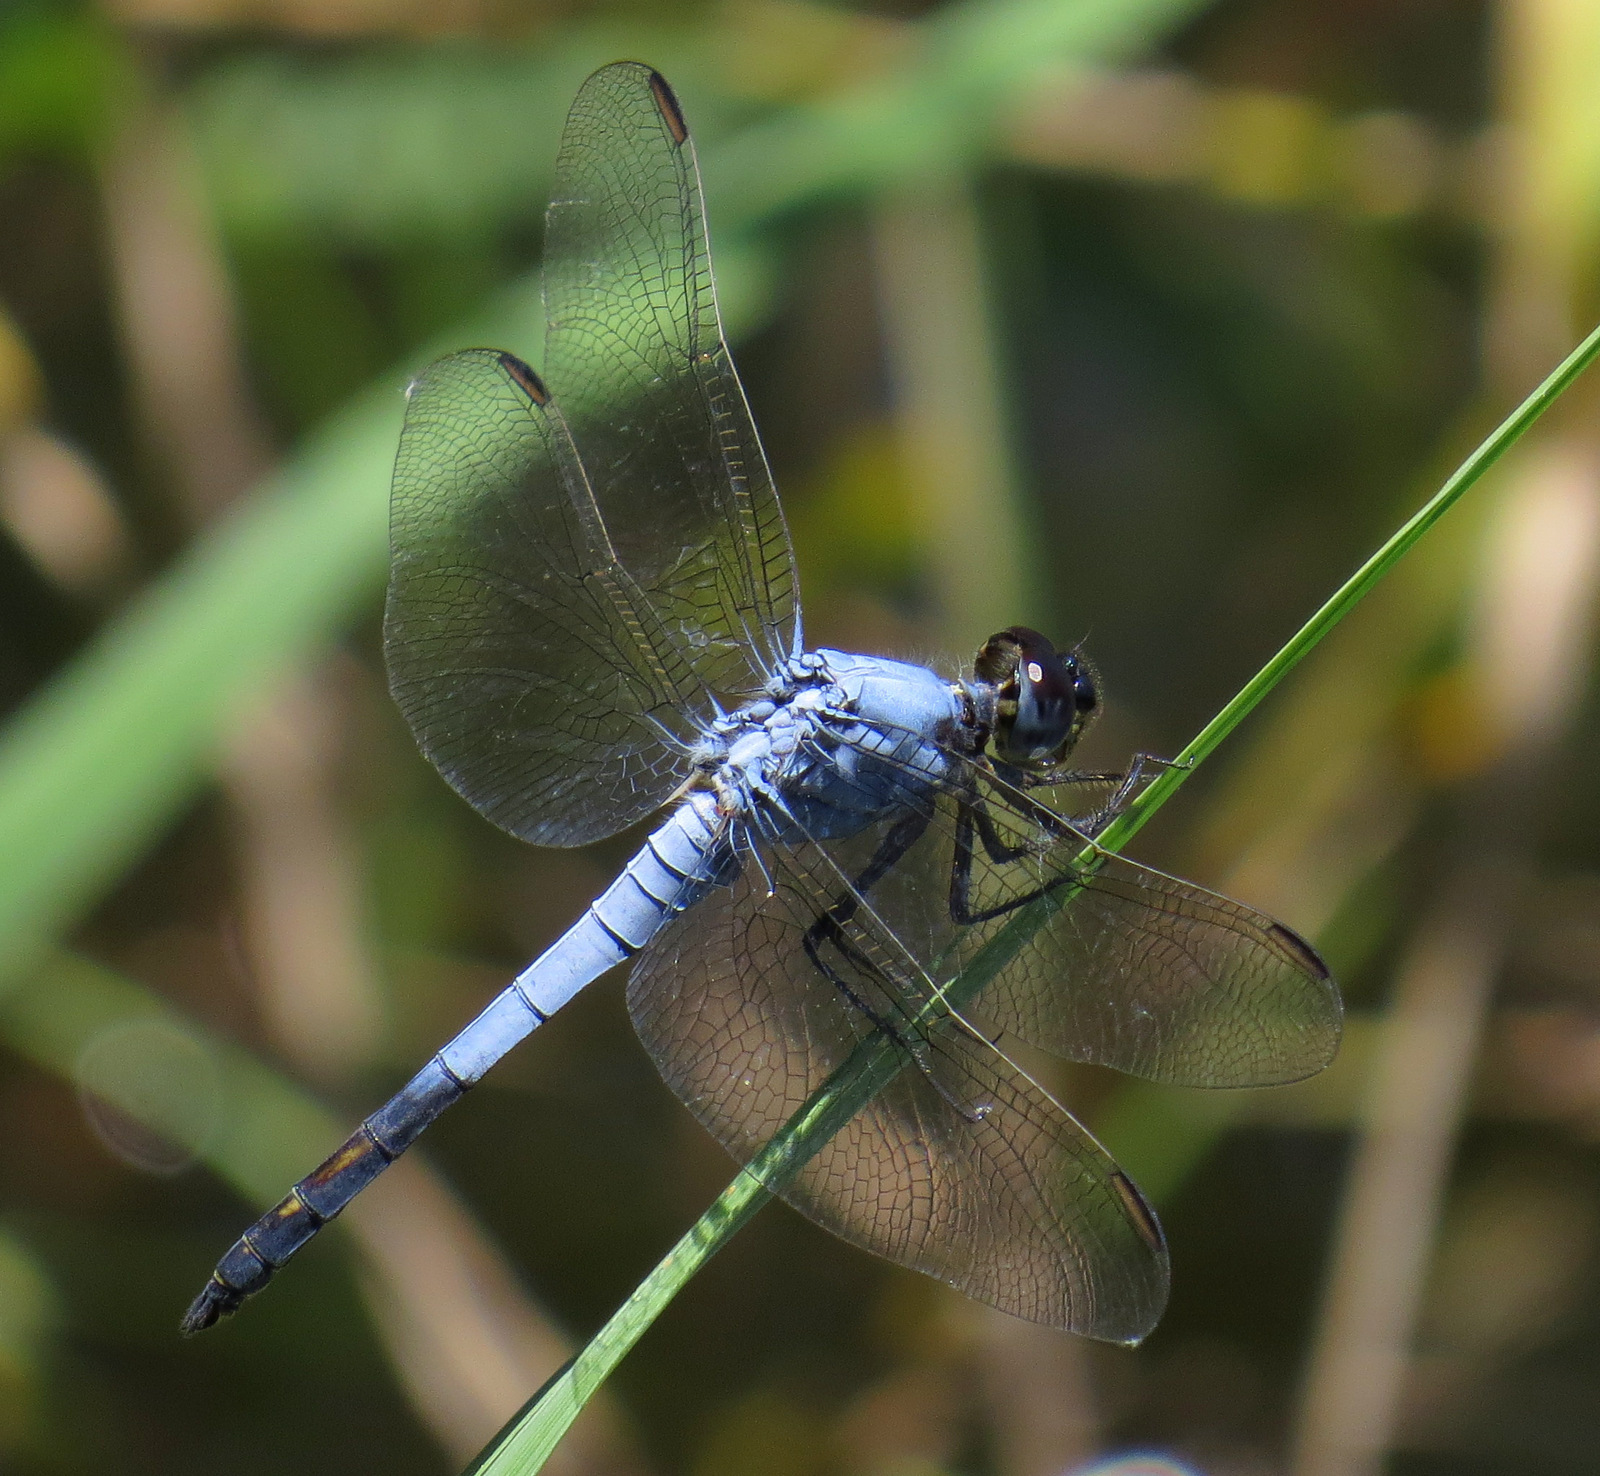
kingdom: Animalia
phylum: Arthropoda
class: Insecta
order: Odonata
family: Libellulidae
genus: Nesciothemis
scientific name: Nesciothemis farinosa
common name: Eastern blacktail
